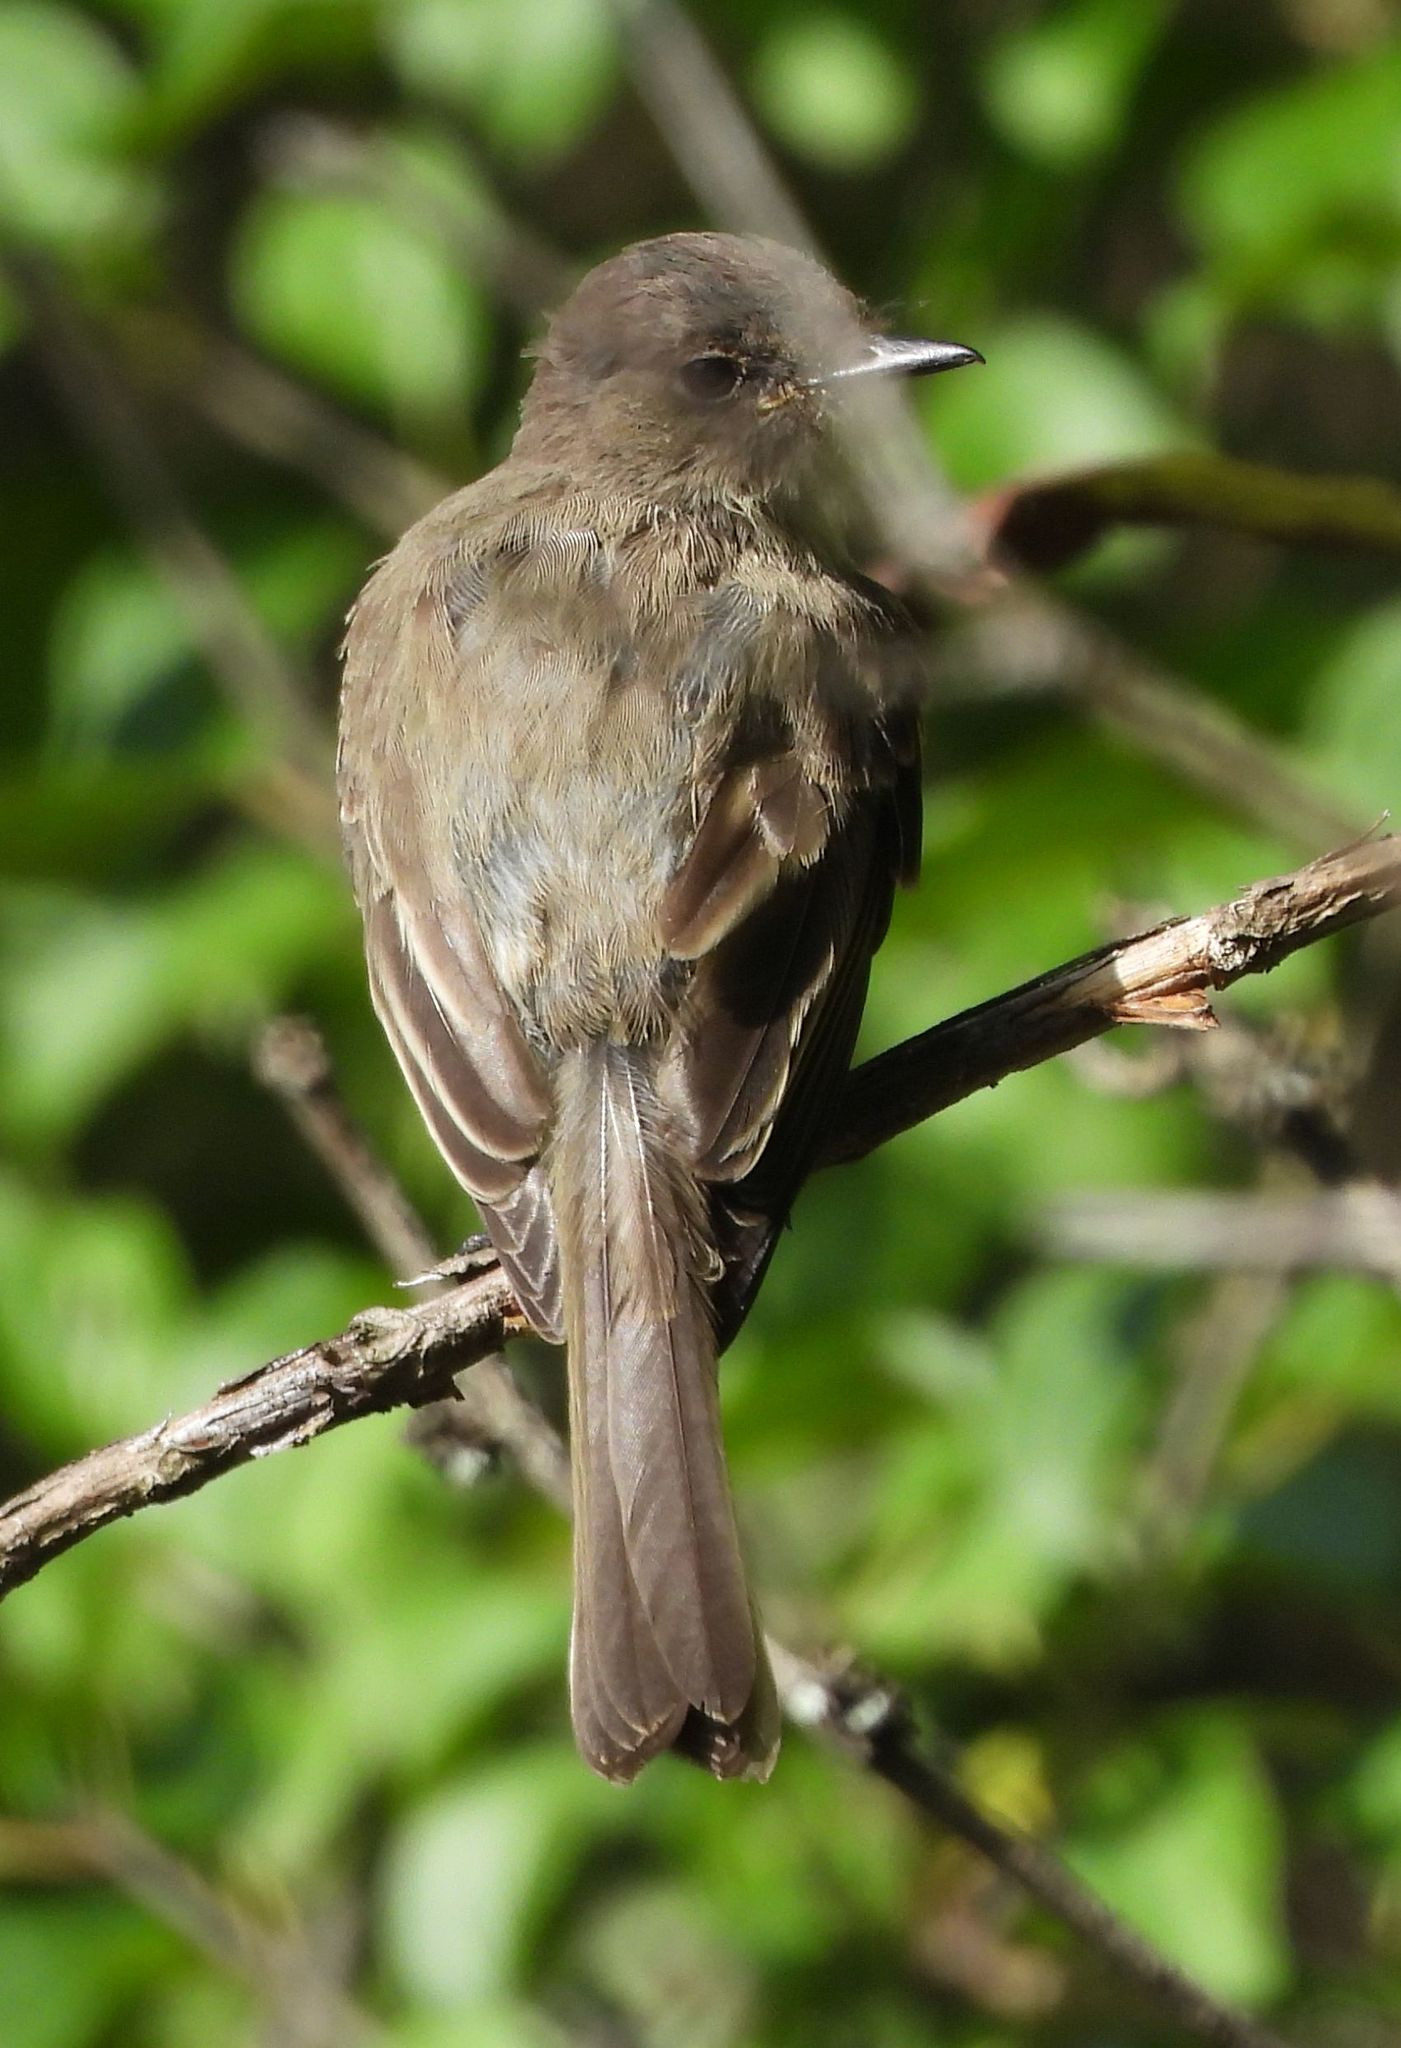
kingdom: Animalia
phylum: Chordata
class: Aves
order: Passeriformes
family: Tyrannidae
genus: Sayornis
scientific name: Sayornis phoebe
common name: Eastern phoebe
